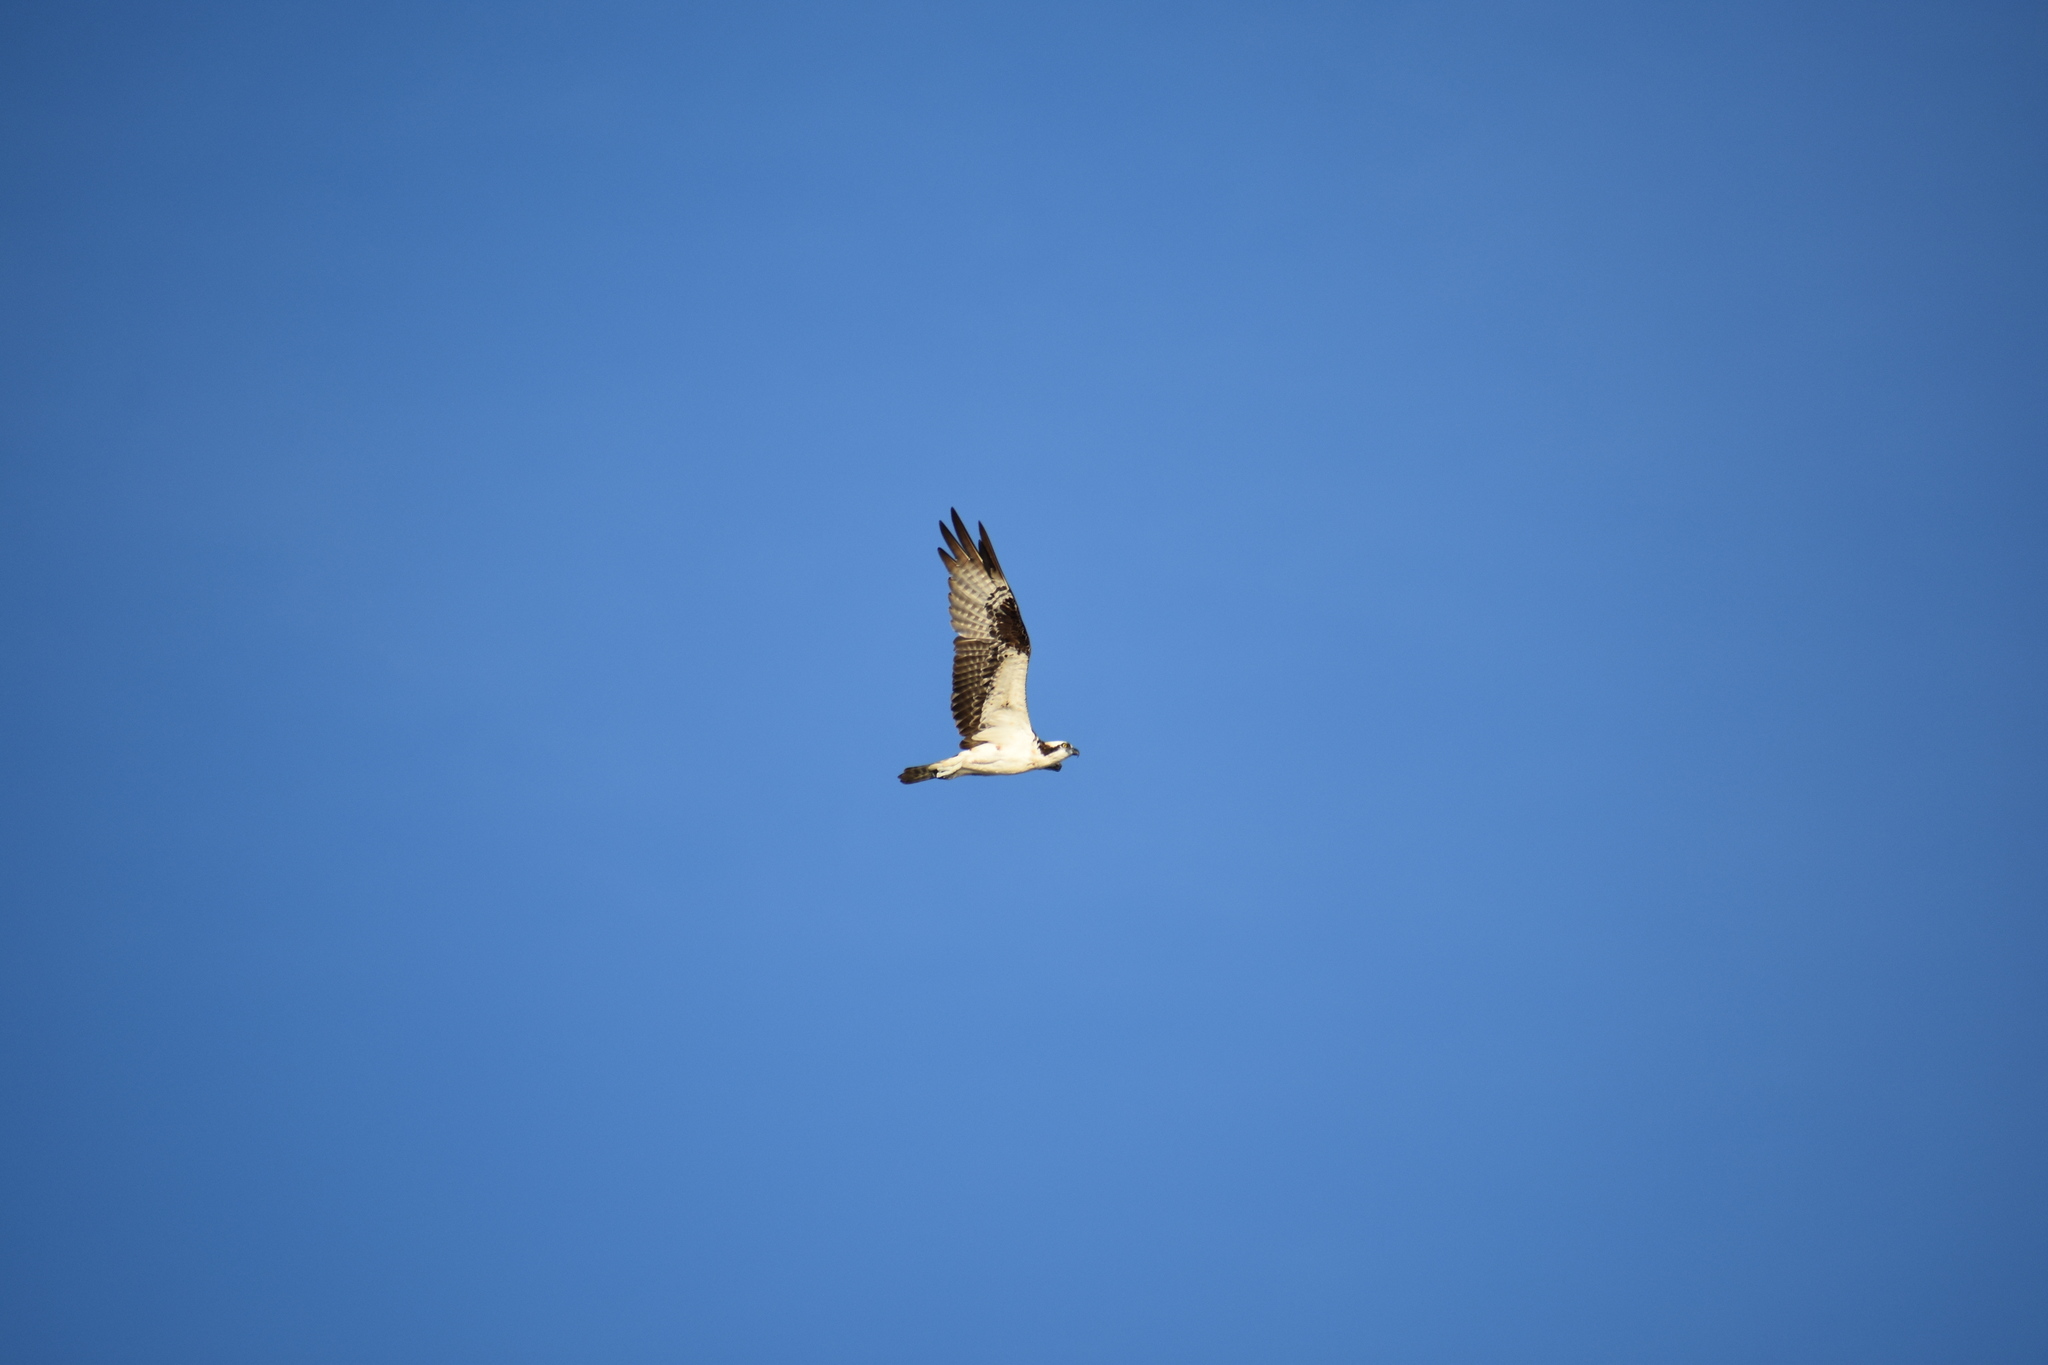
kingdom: Animalia
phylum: Chordata
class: Aves
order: Accipitriformes
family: Pandionidae
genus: Pandion
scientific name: Pandion haliaetus
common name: Osprey
